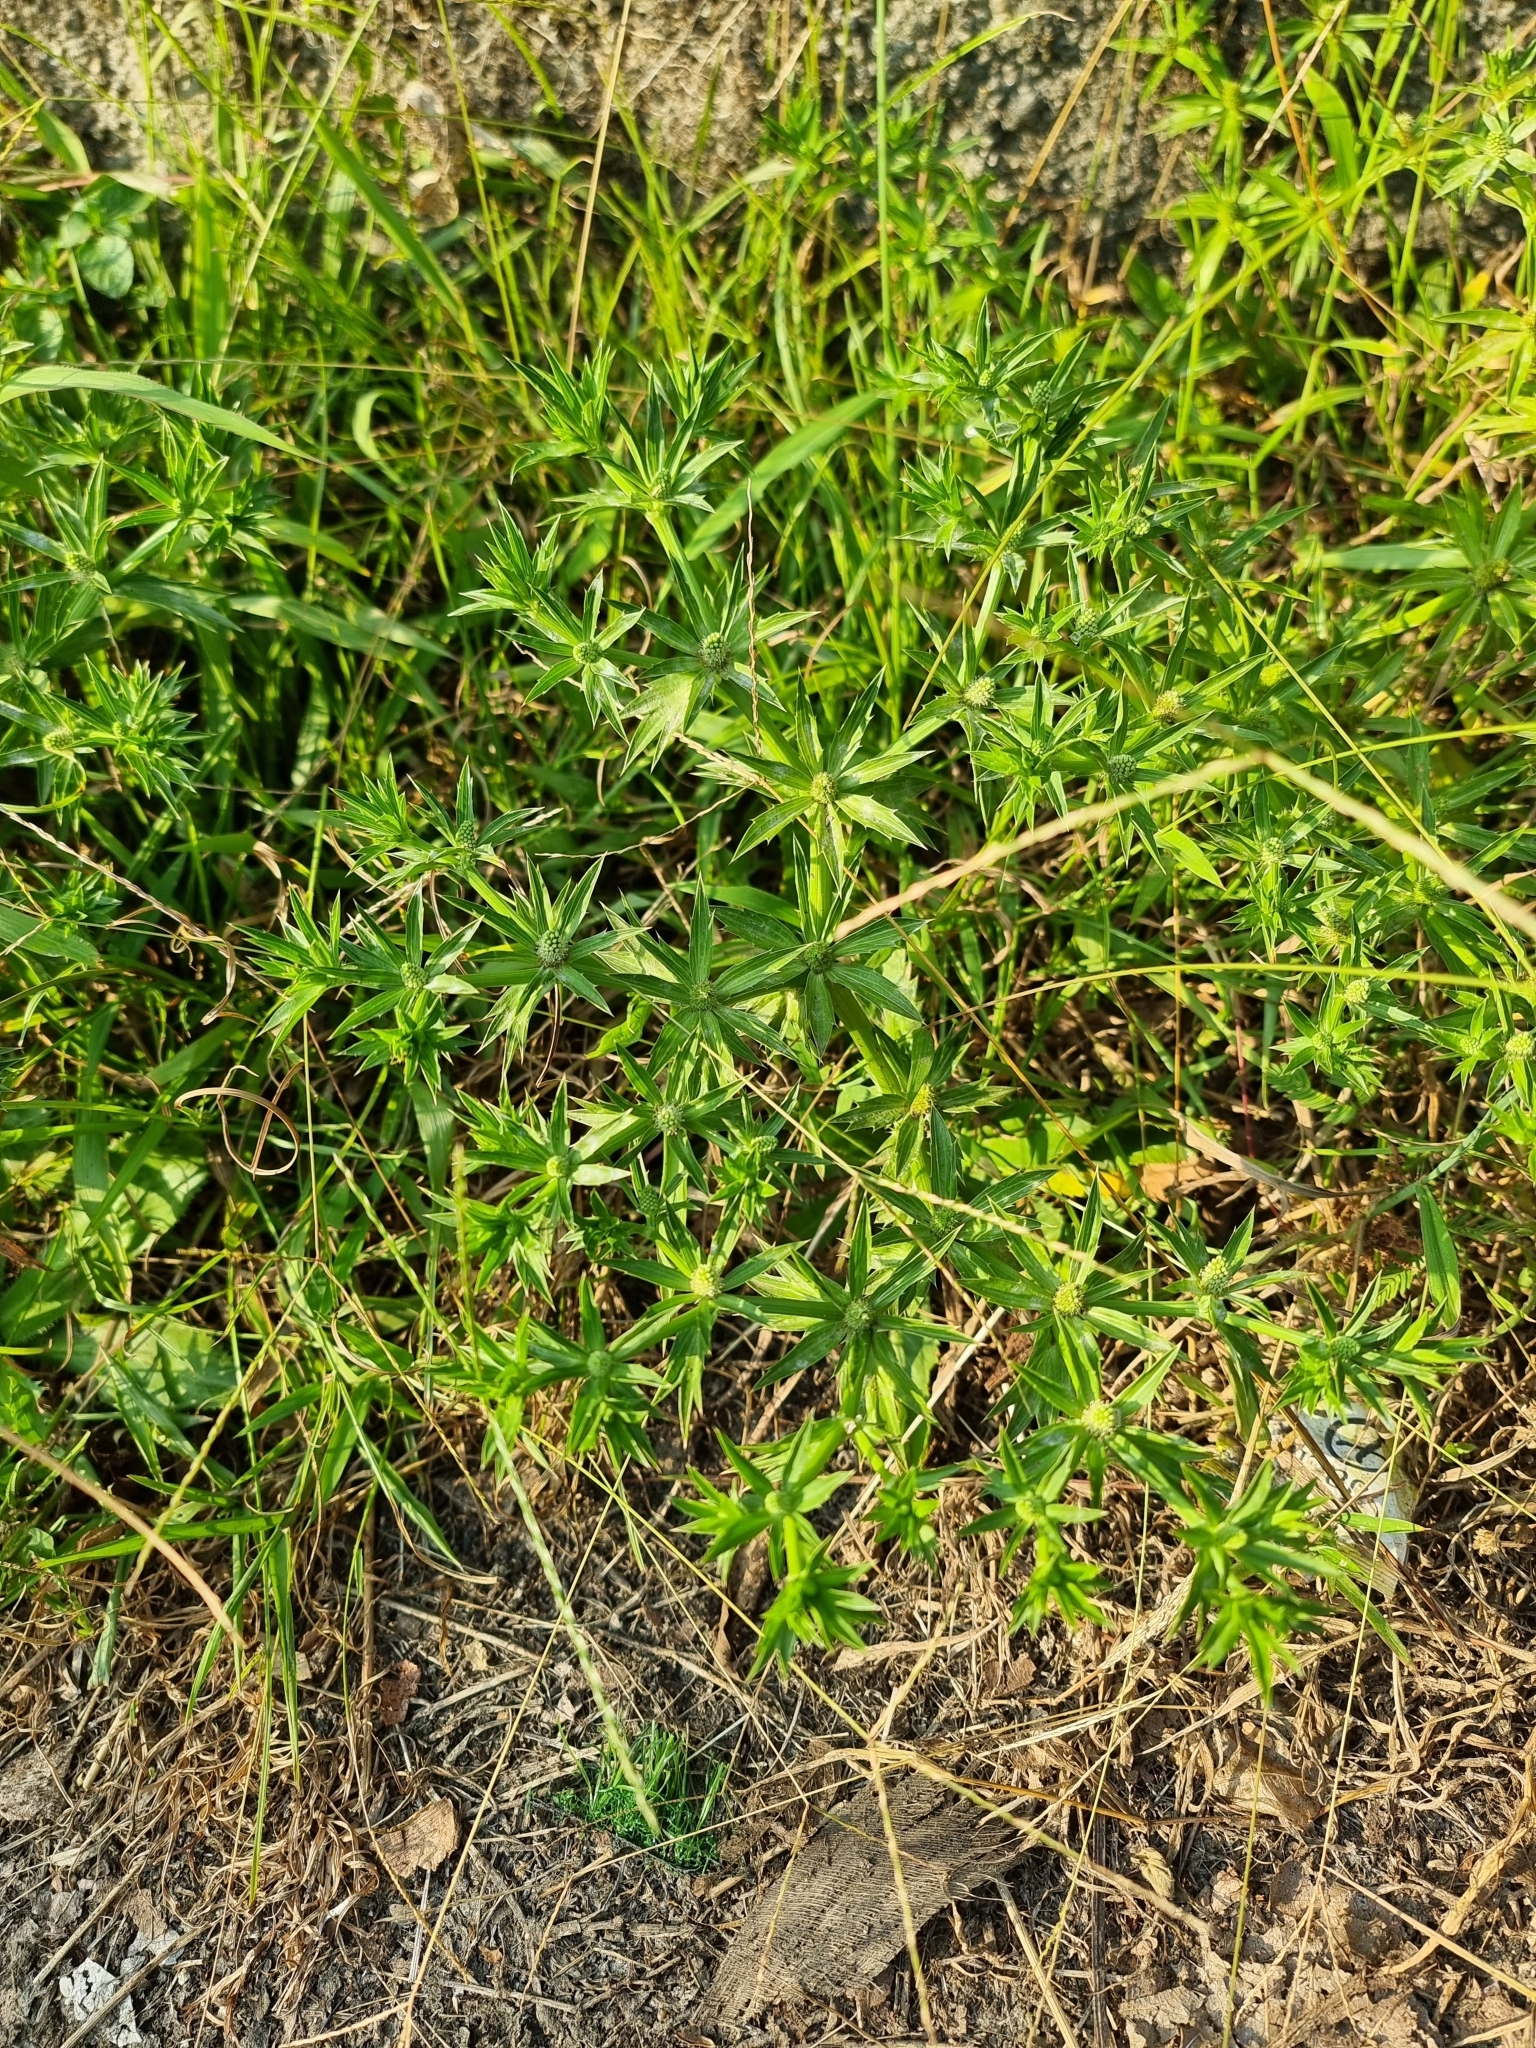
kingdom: Plantae
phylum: Tracheophyta
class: Magnoliopsida
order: Apiales
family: Apiaceae
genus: Eryngium
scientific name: Eryngium foetidum
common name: Fitweed
